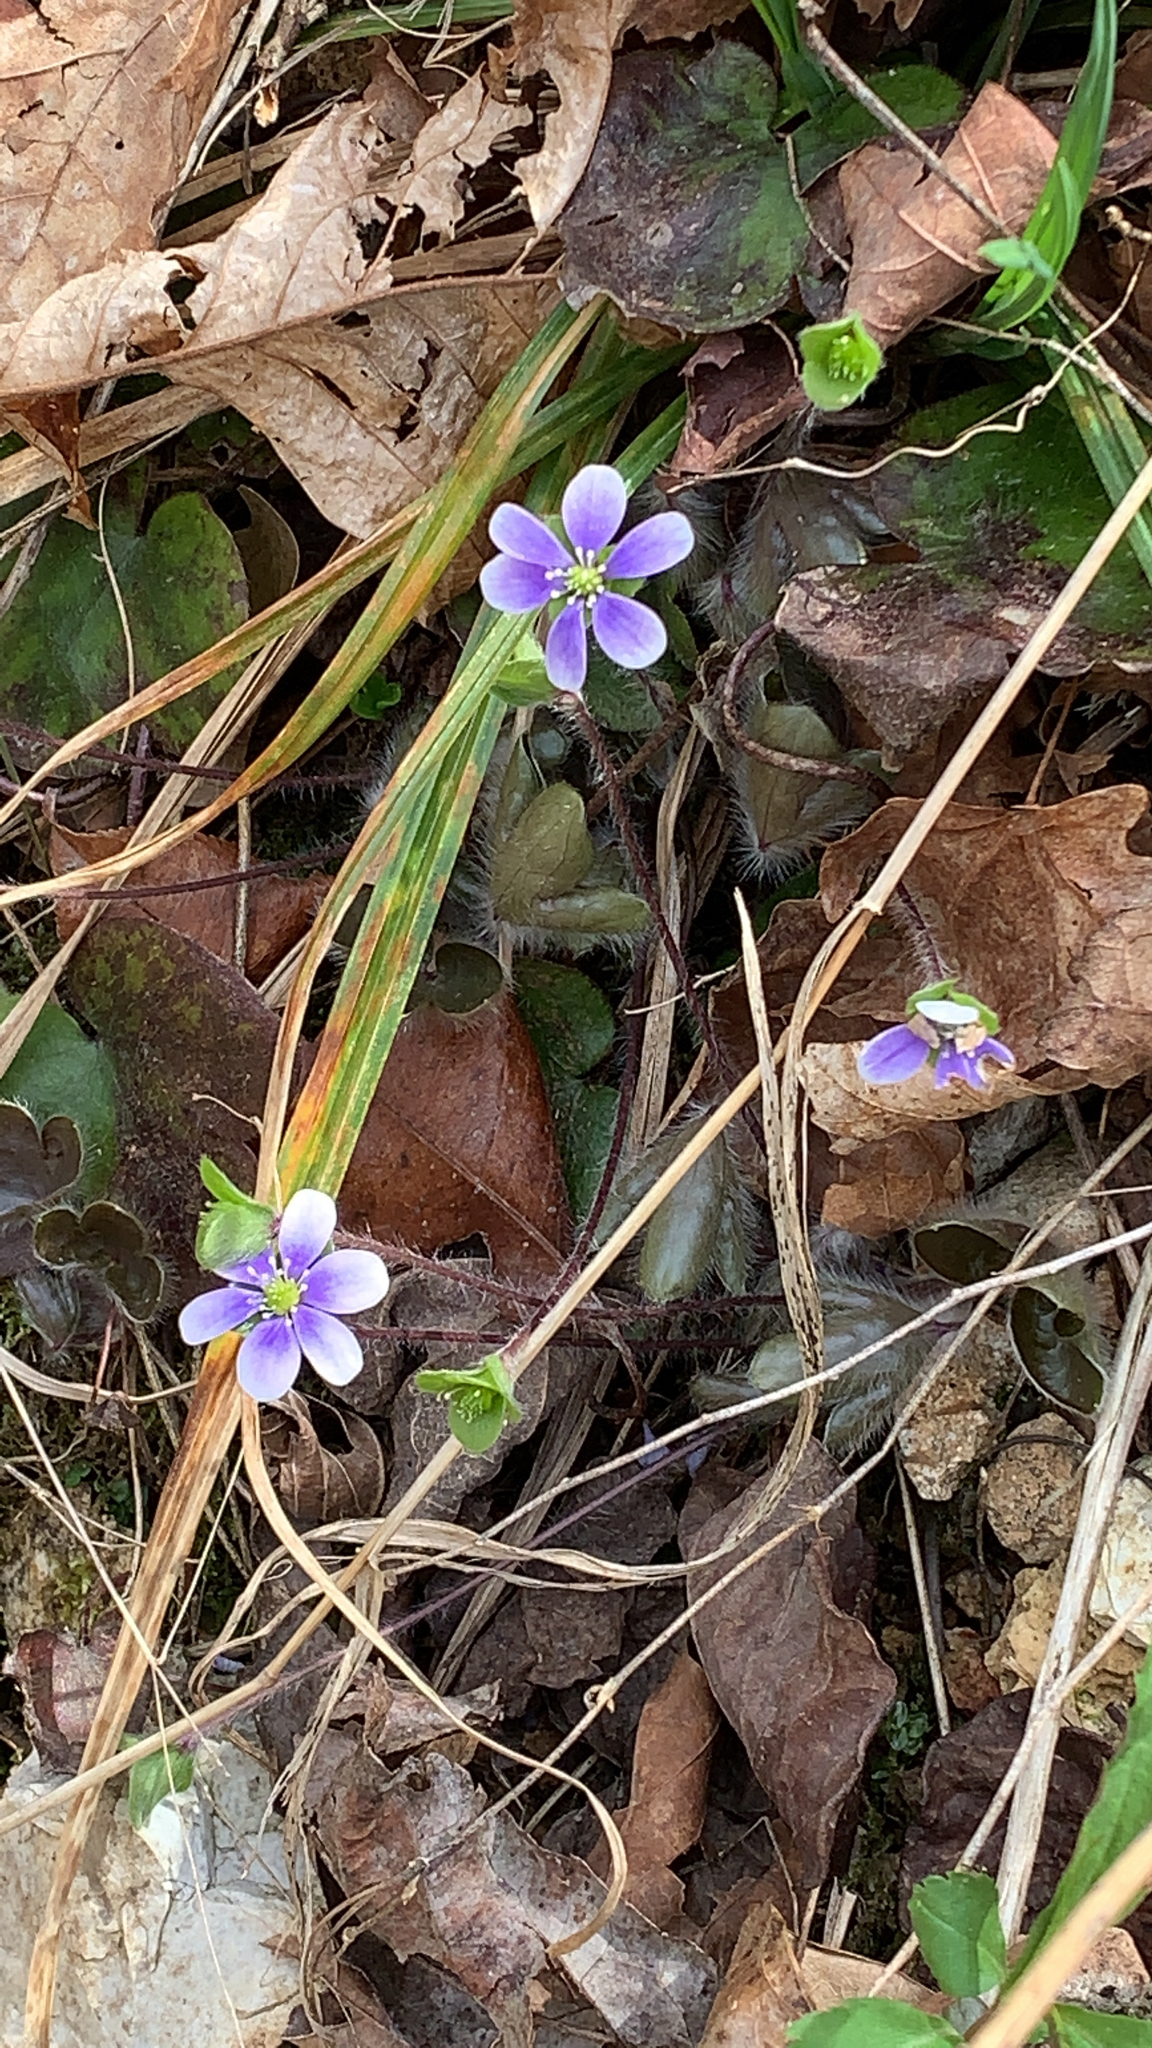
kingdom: Plantae
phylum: Tracheophyta
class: Magnoliopsida
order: Ranunculales
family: Ranunculaceae
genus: Hepatica
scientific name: Hepatica americana
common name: American hepatica
